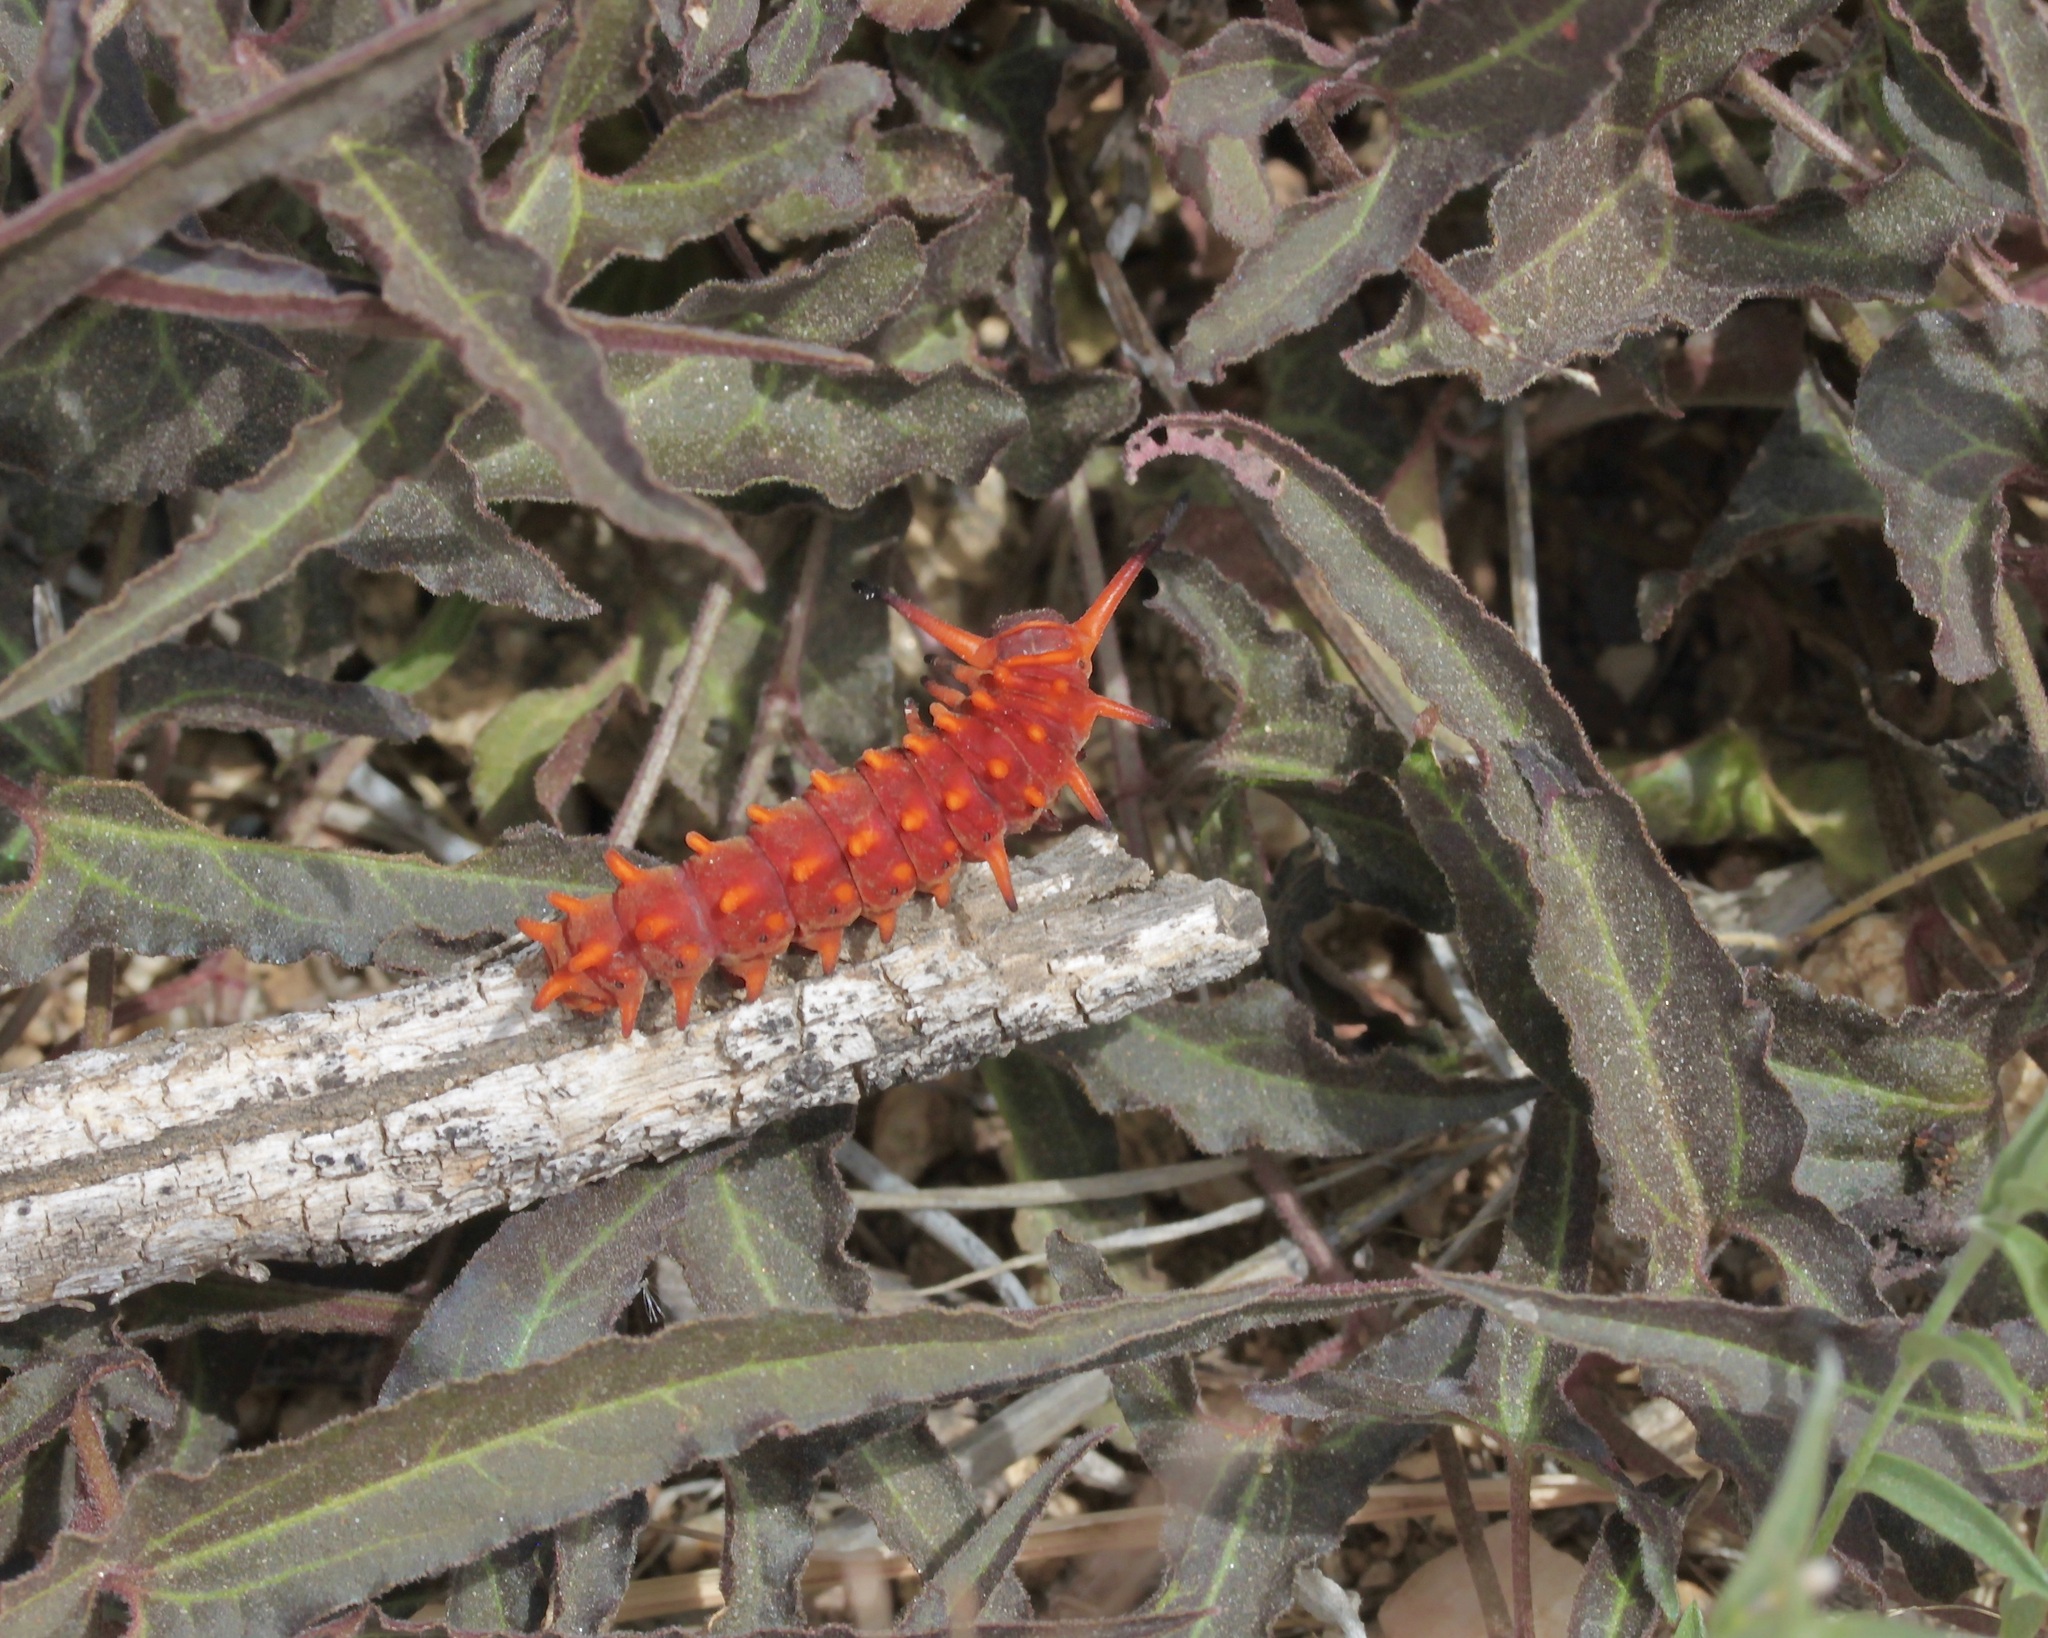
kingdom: Animalia
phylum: Arthropoda
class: Insecta
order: Lepidoptera
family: Papilionidae
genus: Battus
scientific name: Battus philenor
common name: Pipevine swallowtail
